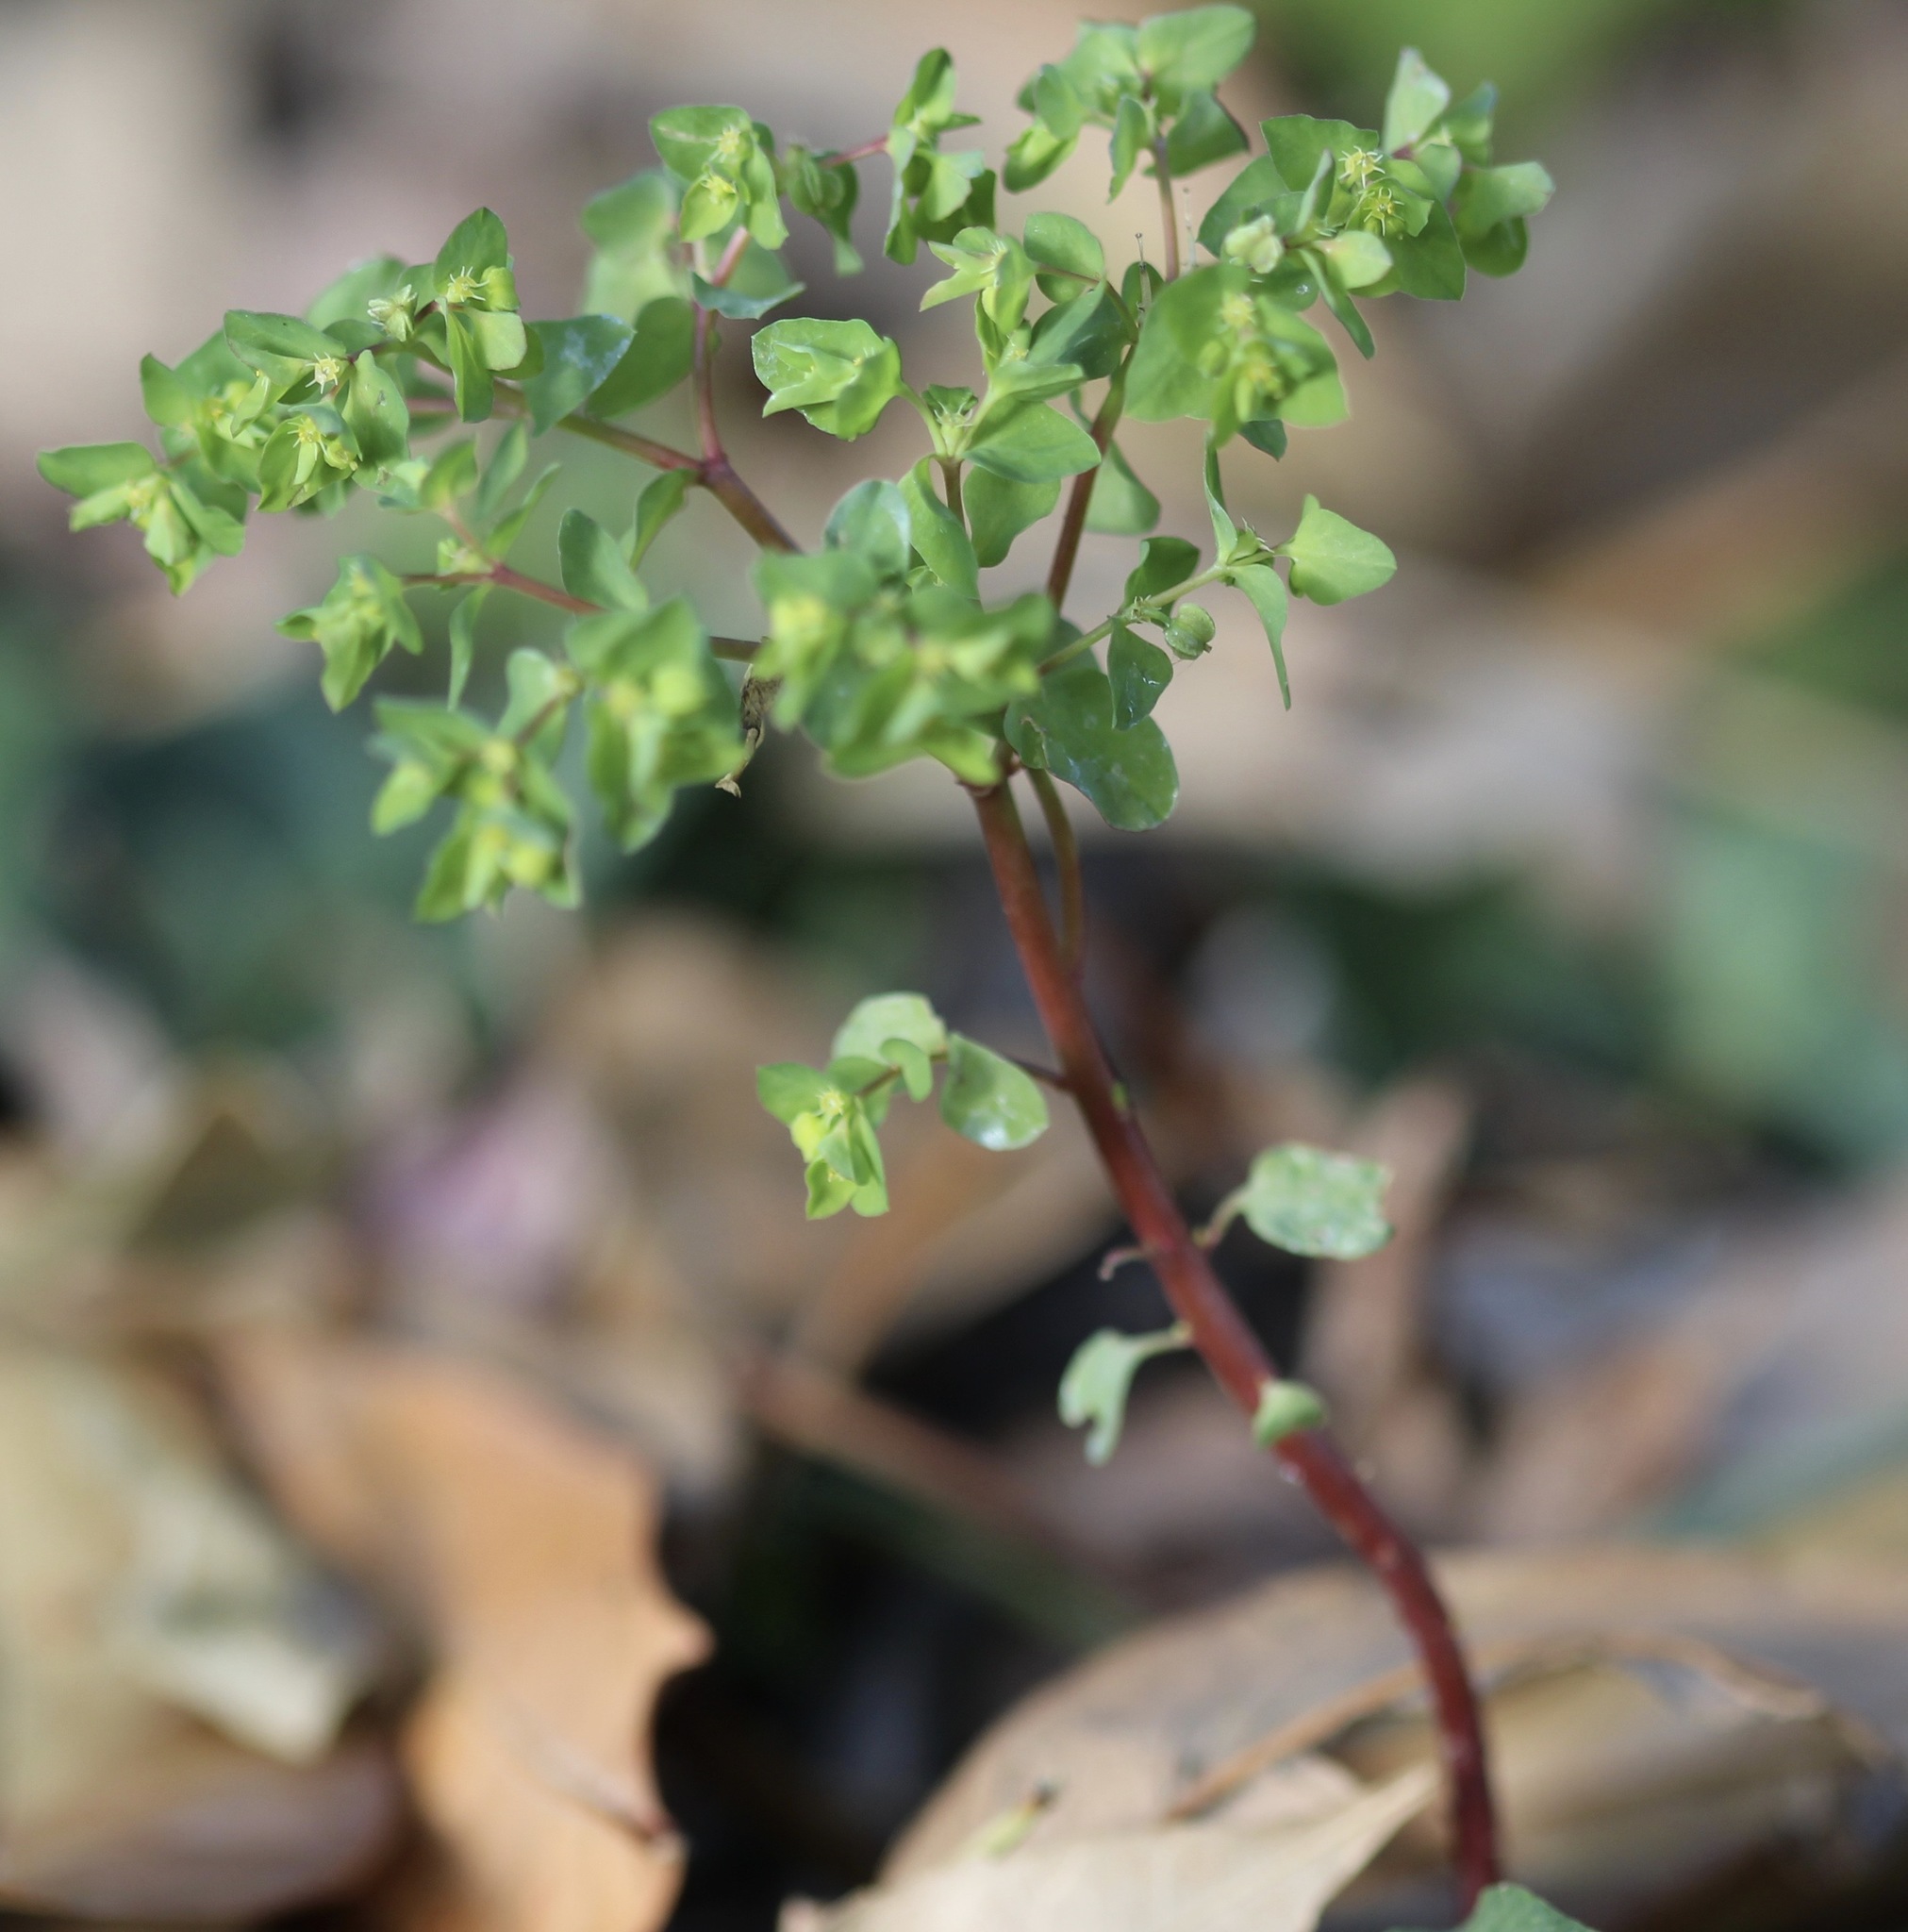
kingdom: Plantae
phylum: Tracheophyta
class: Magnoliopsida
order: Malpighiales
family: Euphorbiaceae
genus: Euphorbia
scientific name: Euphorbia peplus
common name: Petty spurge
